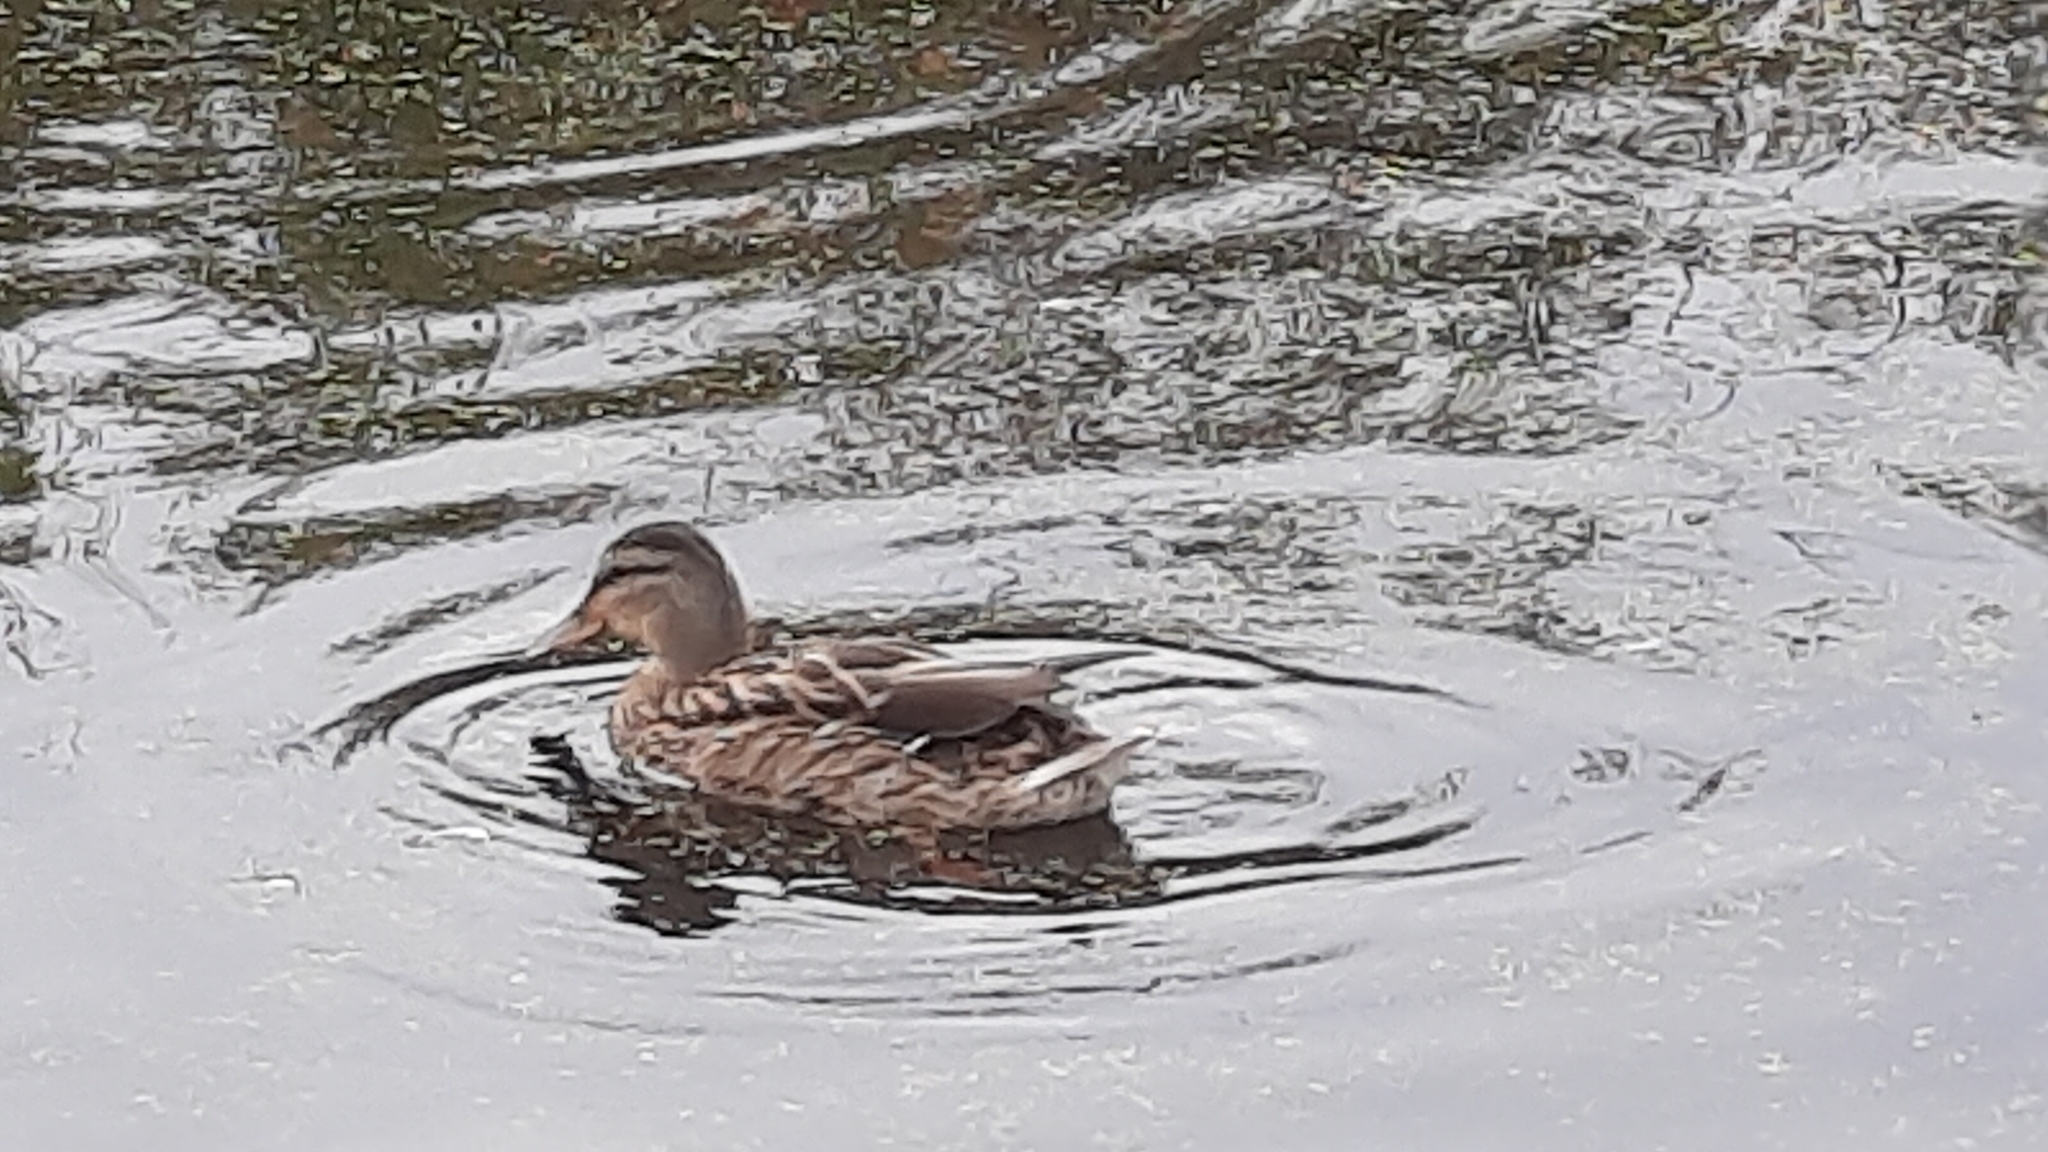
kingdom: Animalia
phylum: Chordata
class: Aves
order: Anseriformes
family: Anatidae
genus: Anas
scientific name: Anas platyrhynchos
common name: Mallard
